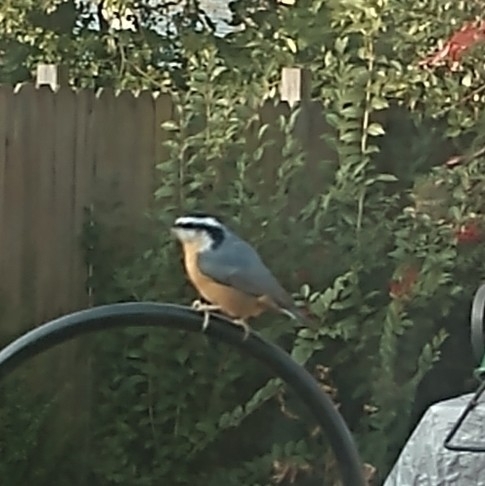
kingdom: Animalia
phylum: Chordata
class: Aves
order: Passeriformes
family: Sittidae
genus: Sitta
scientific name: Sitta canadensis
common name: Red-breasted nuthatch
